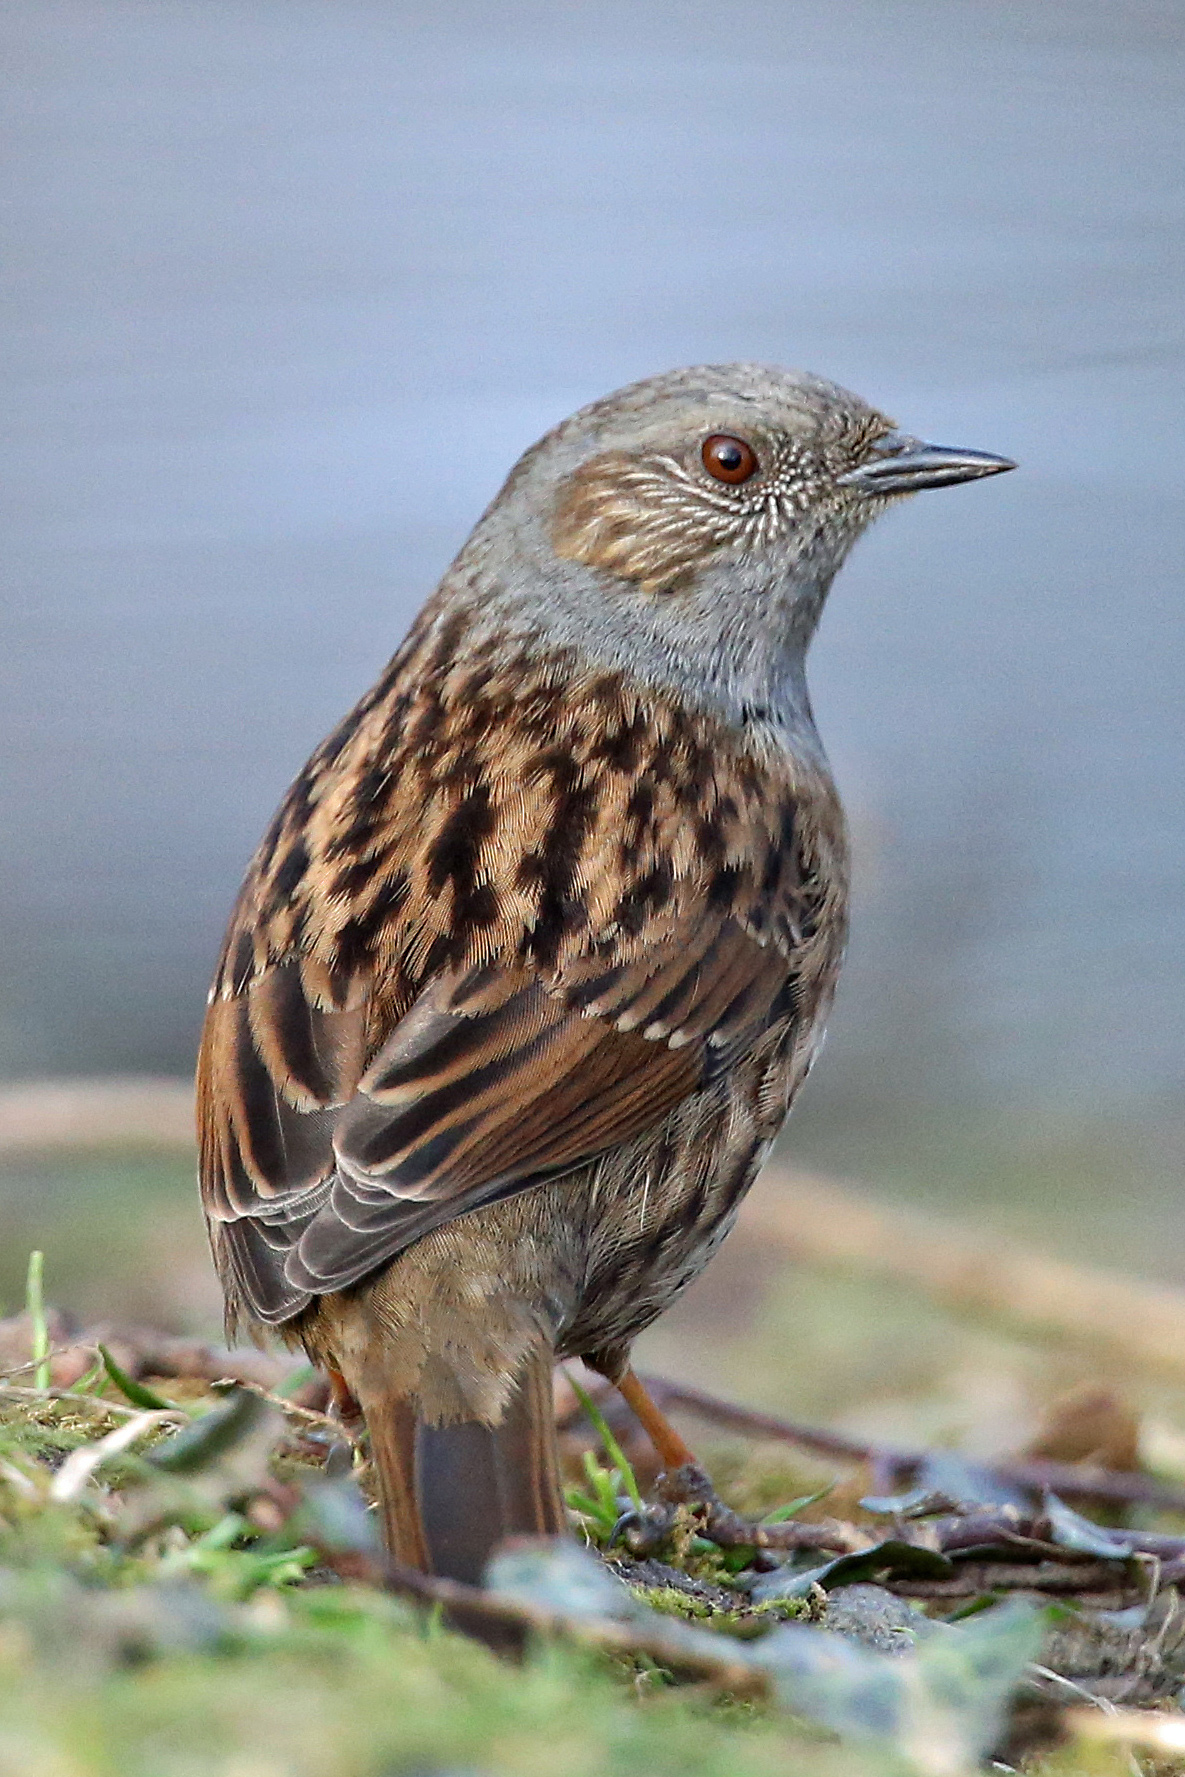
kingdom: Animalia
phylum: Chordata
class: Aves
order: Passeriformes
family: Prunellidae
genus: Prunella
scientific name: Prunella modularis
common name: Dunnock
